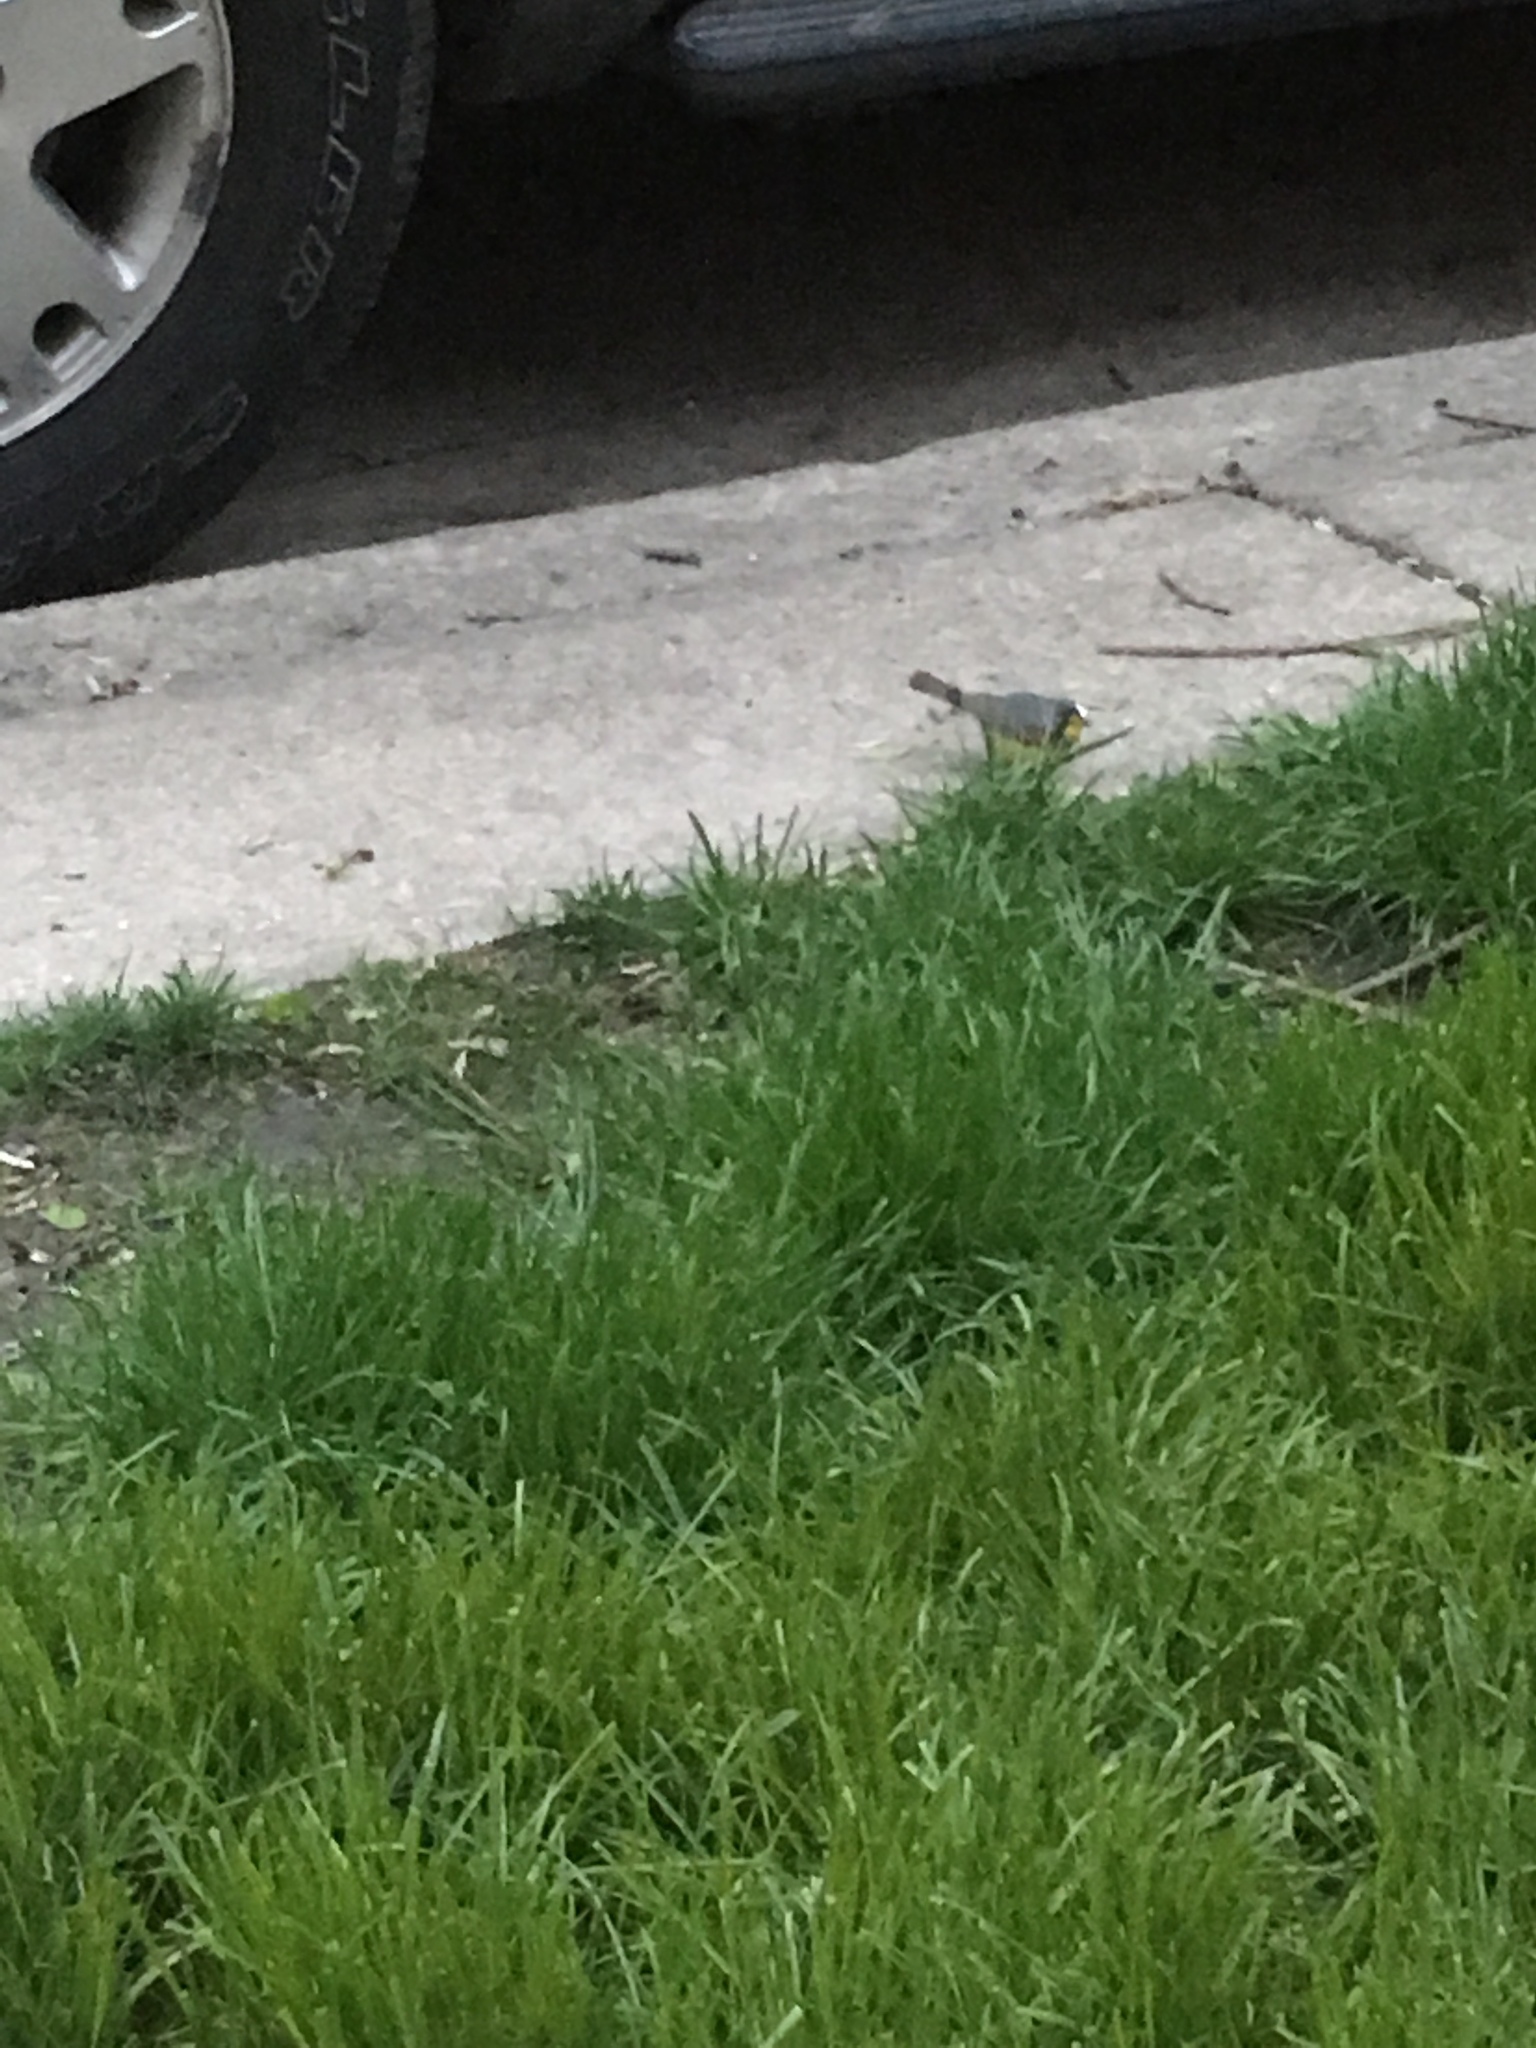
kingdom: Animalia
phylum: Chordata
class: Aves
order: Passeriformes
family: Parulidae
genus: Cardellina
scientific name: Cardellina canadensis
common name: Canada warbler
